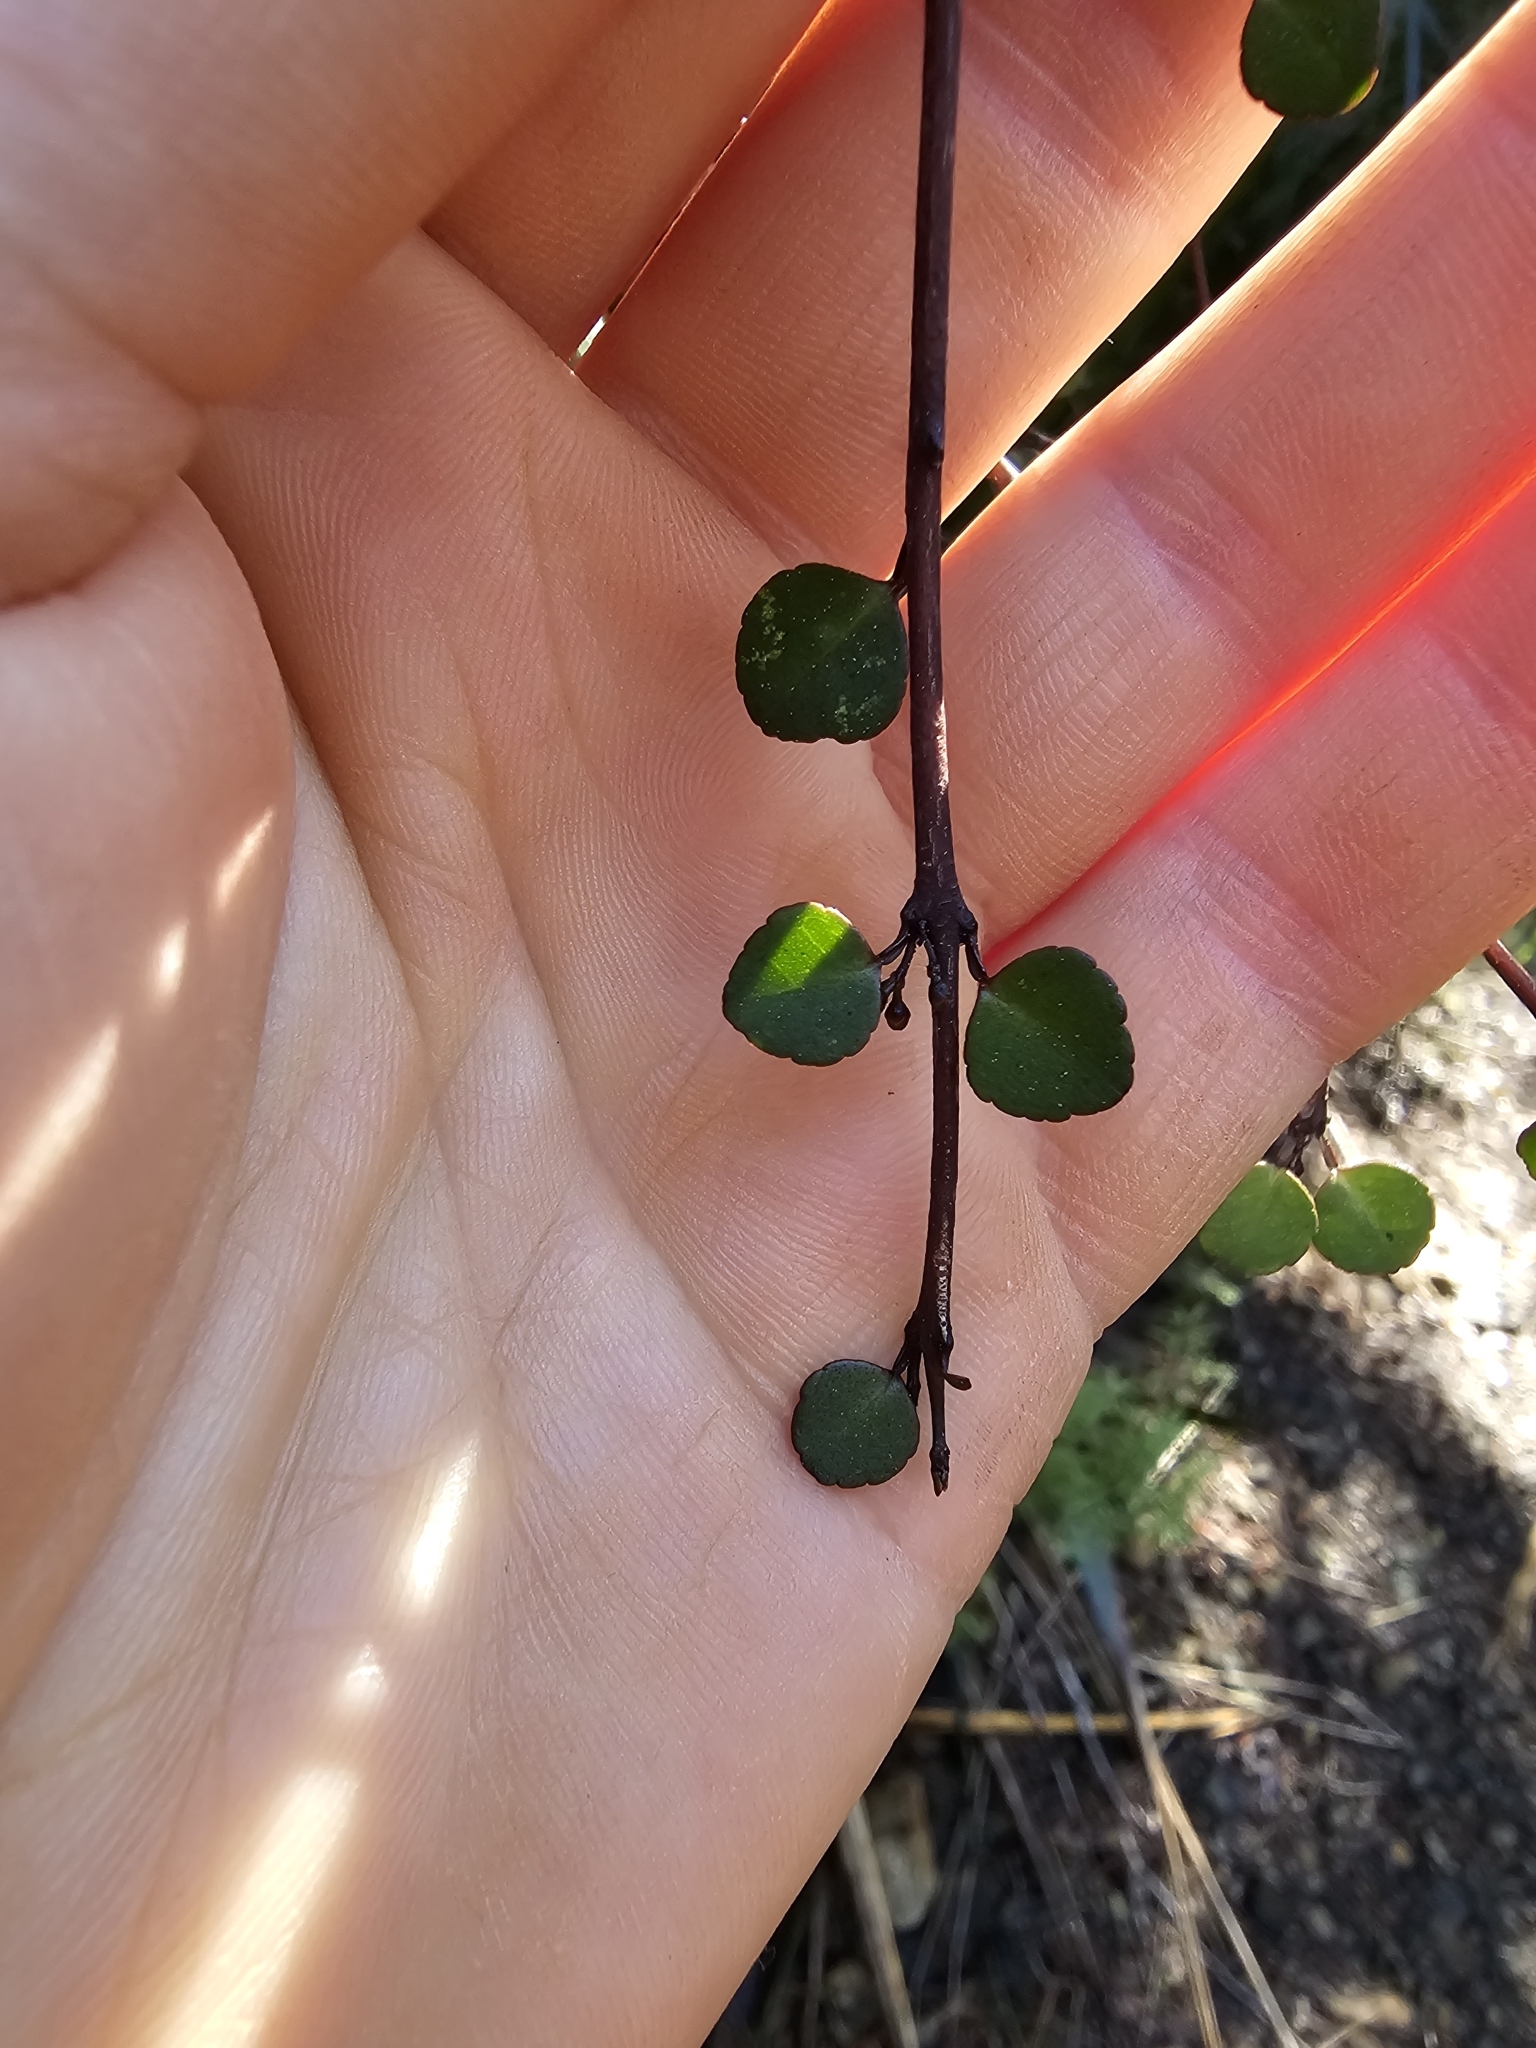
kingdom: Plantae
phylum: Tracheophyta
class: Magnoliopsida
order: Sapindales
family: Rutaceae
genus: Melicope
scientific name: Melicope simplex
